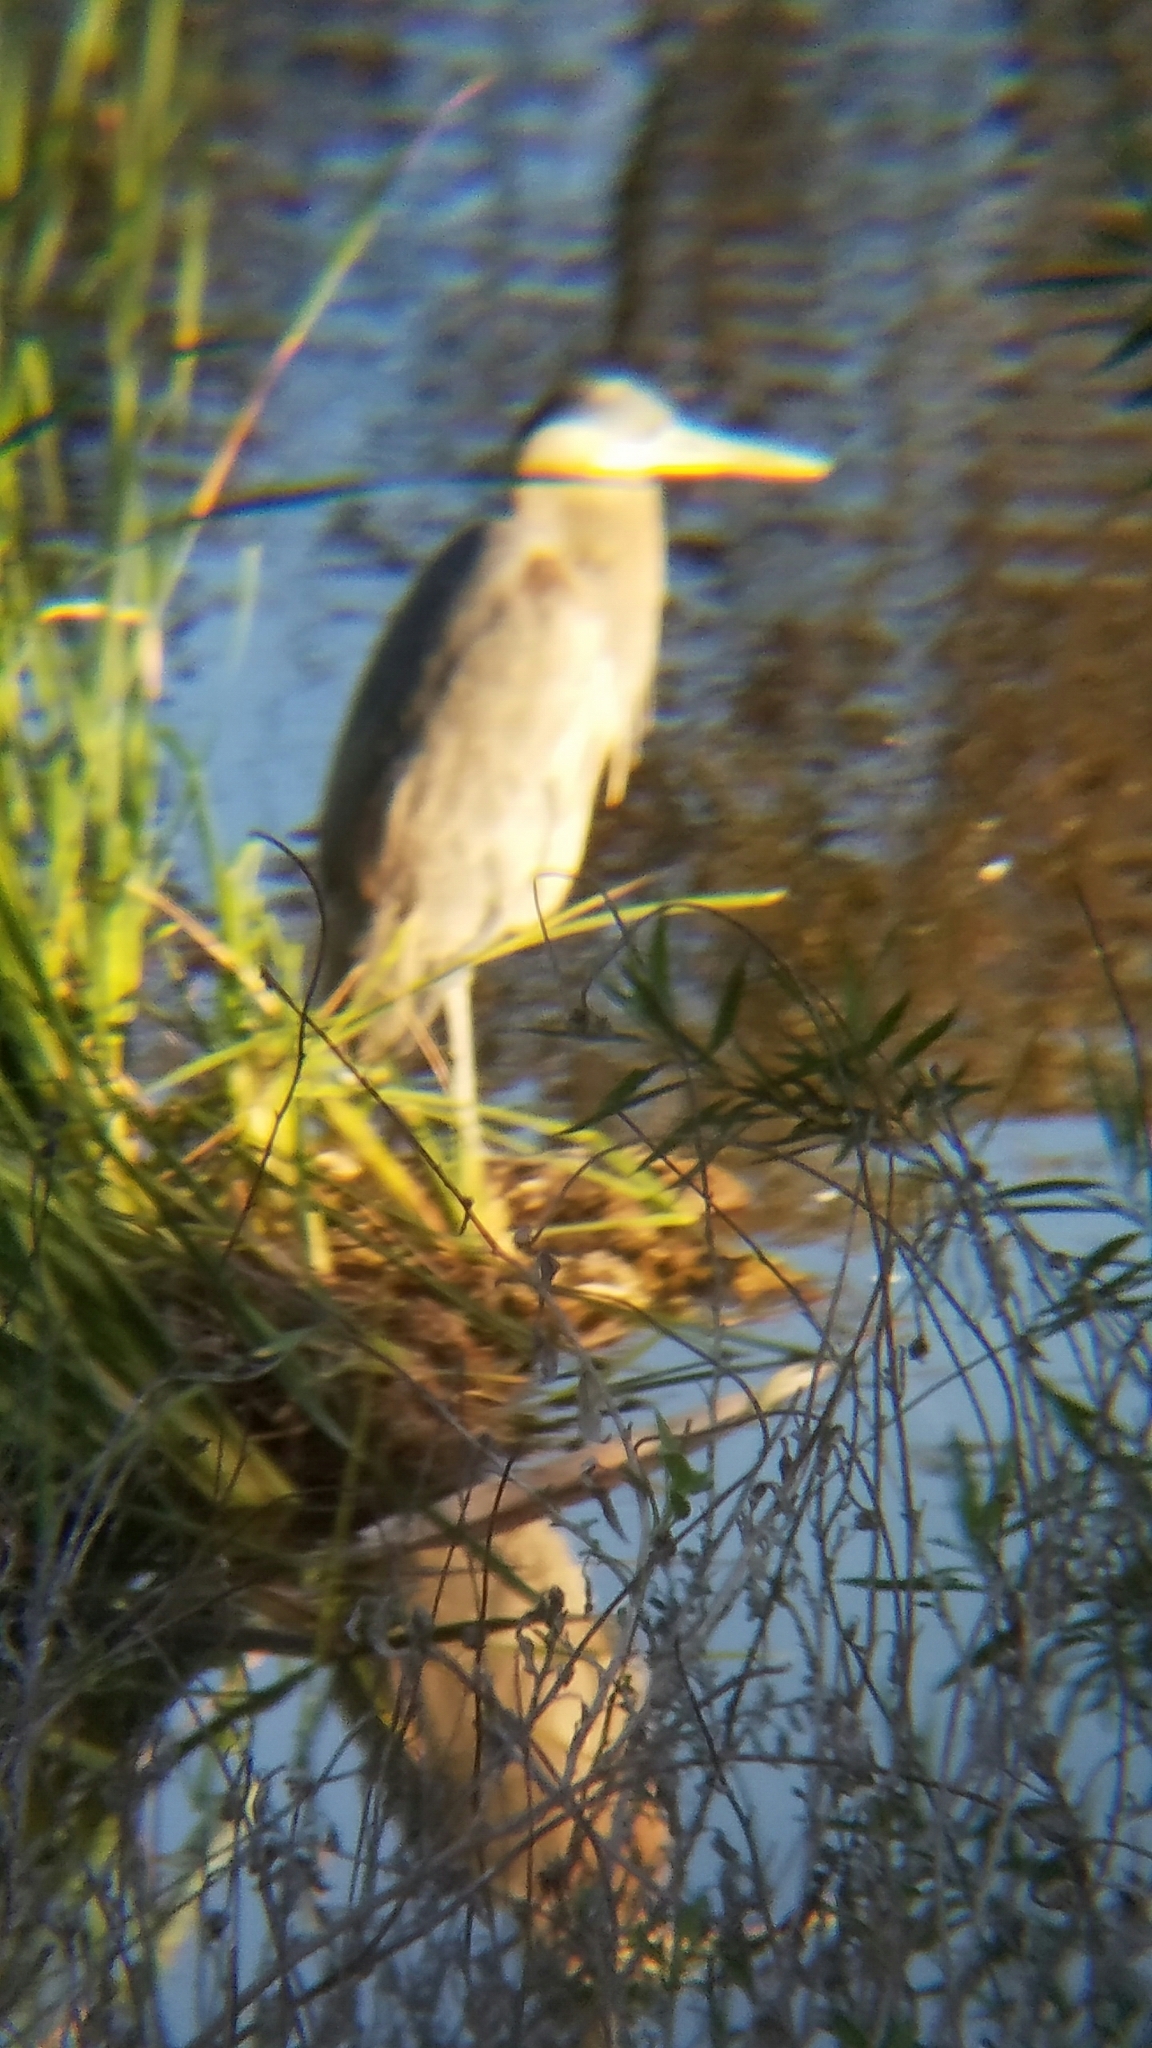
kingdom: Animalia
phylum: Chordata
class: Aves
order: Pelecaniformes
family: Ardeidae
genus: Ardea
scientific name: Ardea herodias
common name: Great blue heron
